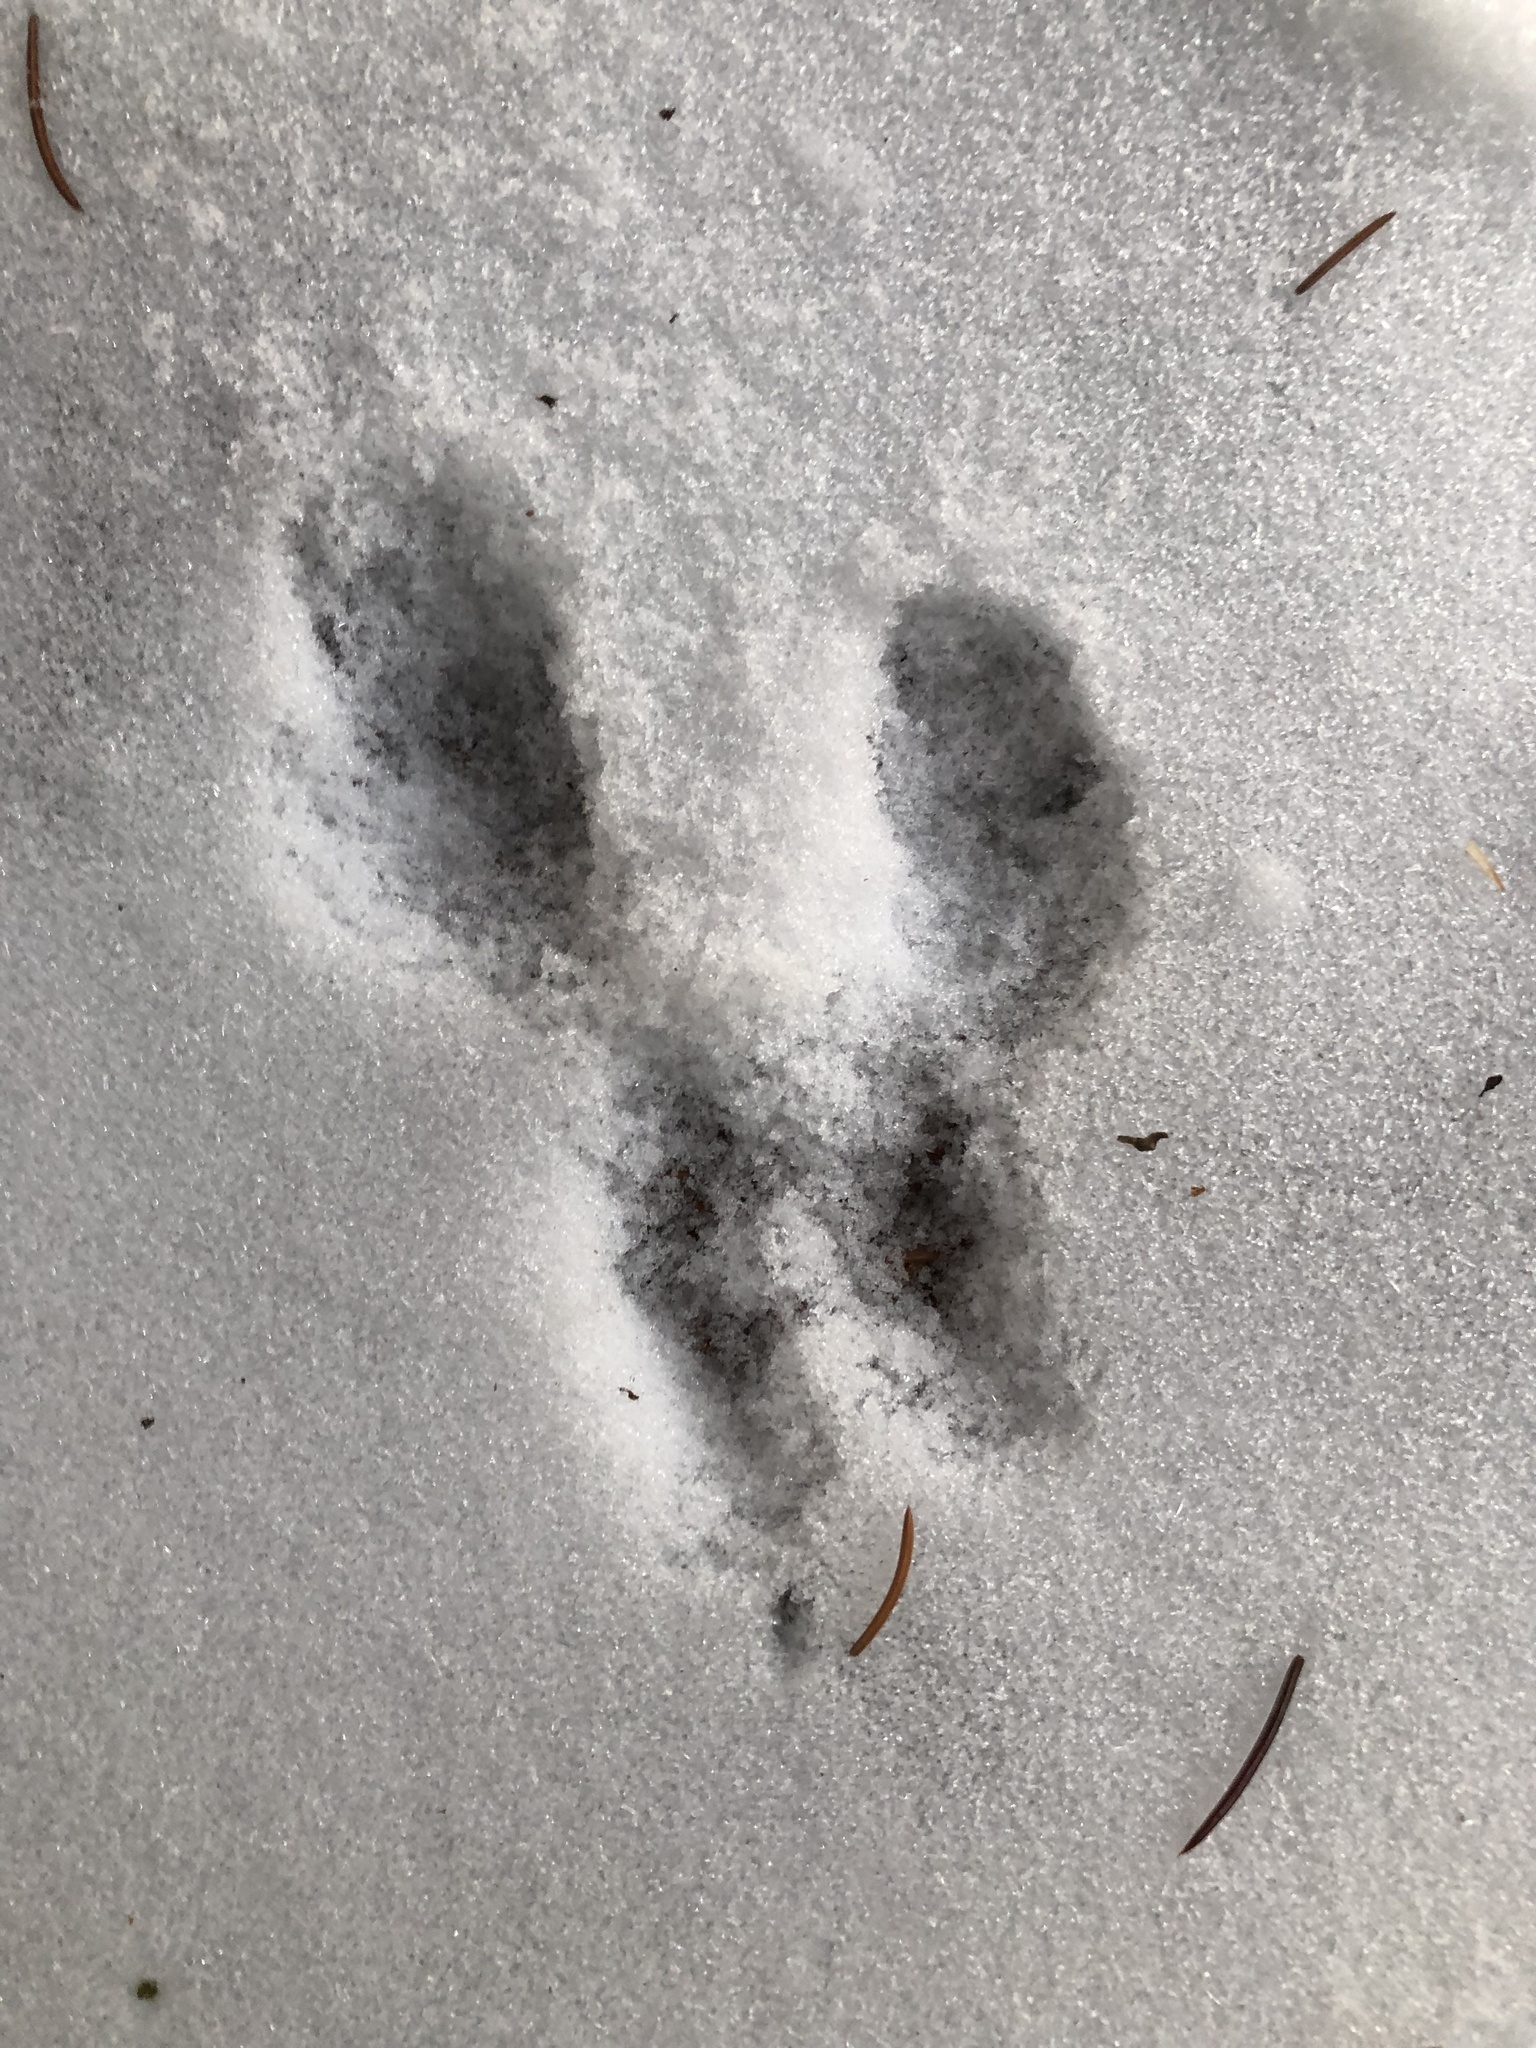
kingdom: Animalia
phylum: Chordata
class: Mammalia
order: Rodentia
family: Sciuridae
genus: Sciurus
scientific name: Sciurus carolinensis
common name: Eastern gray squirrel
